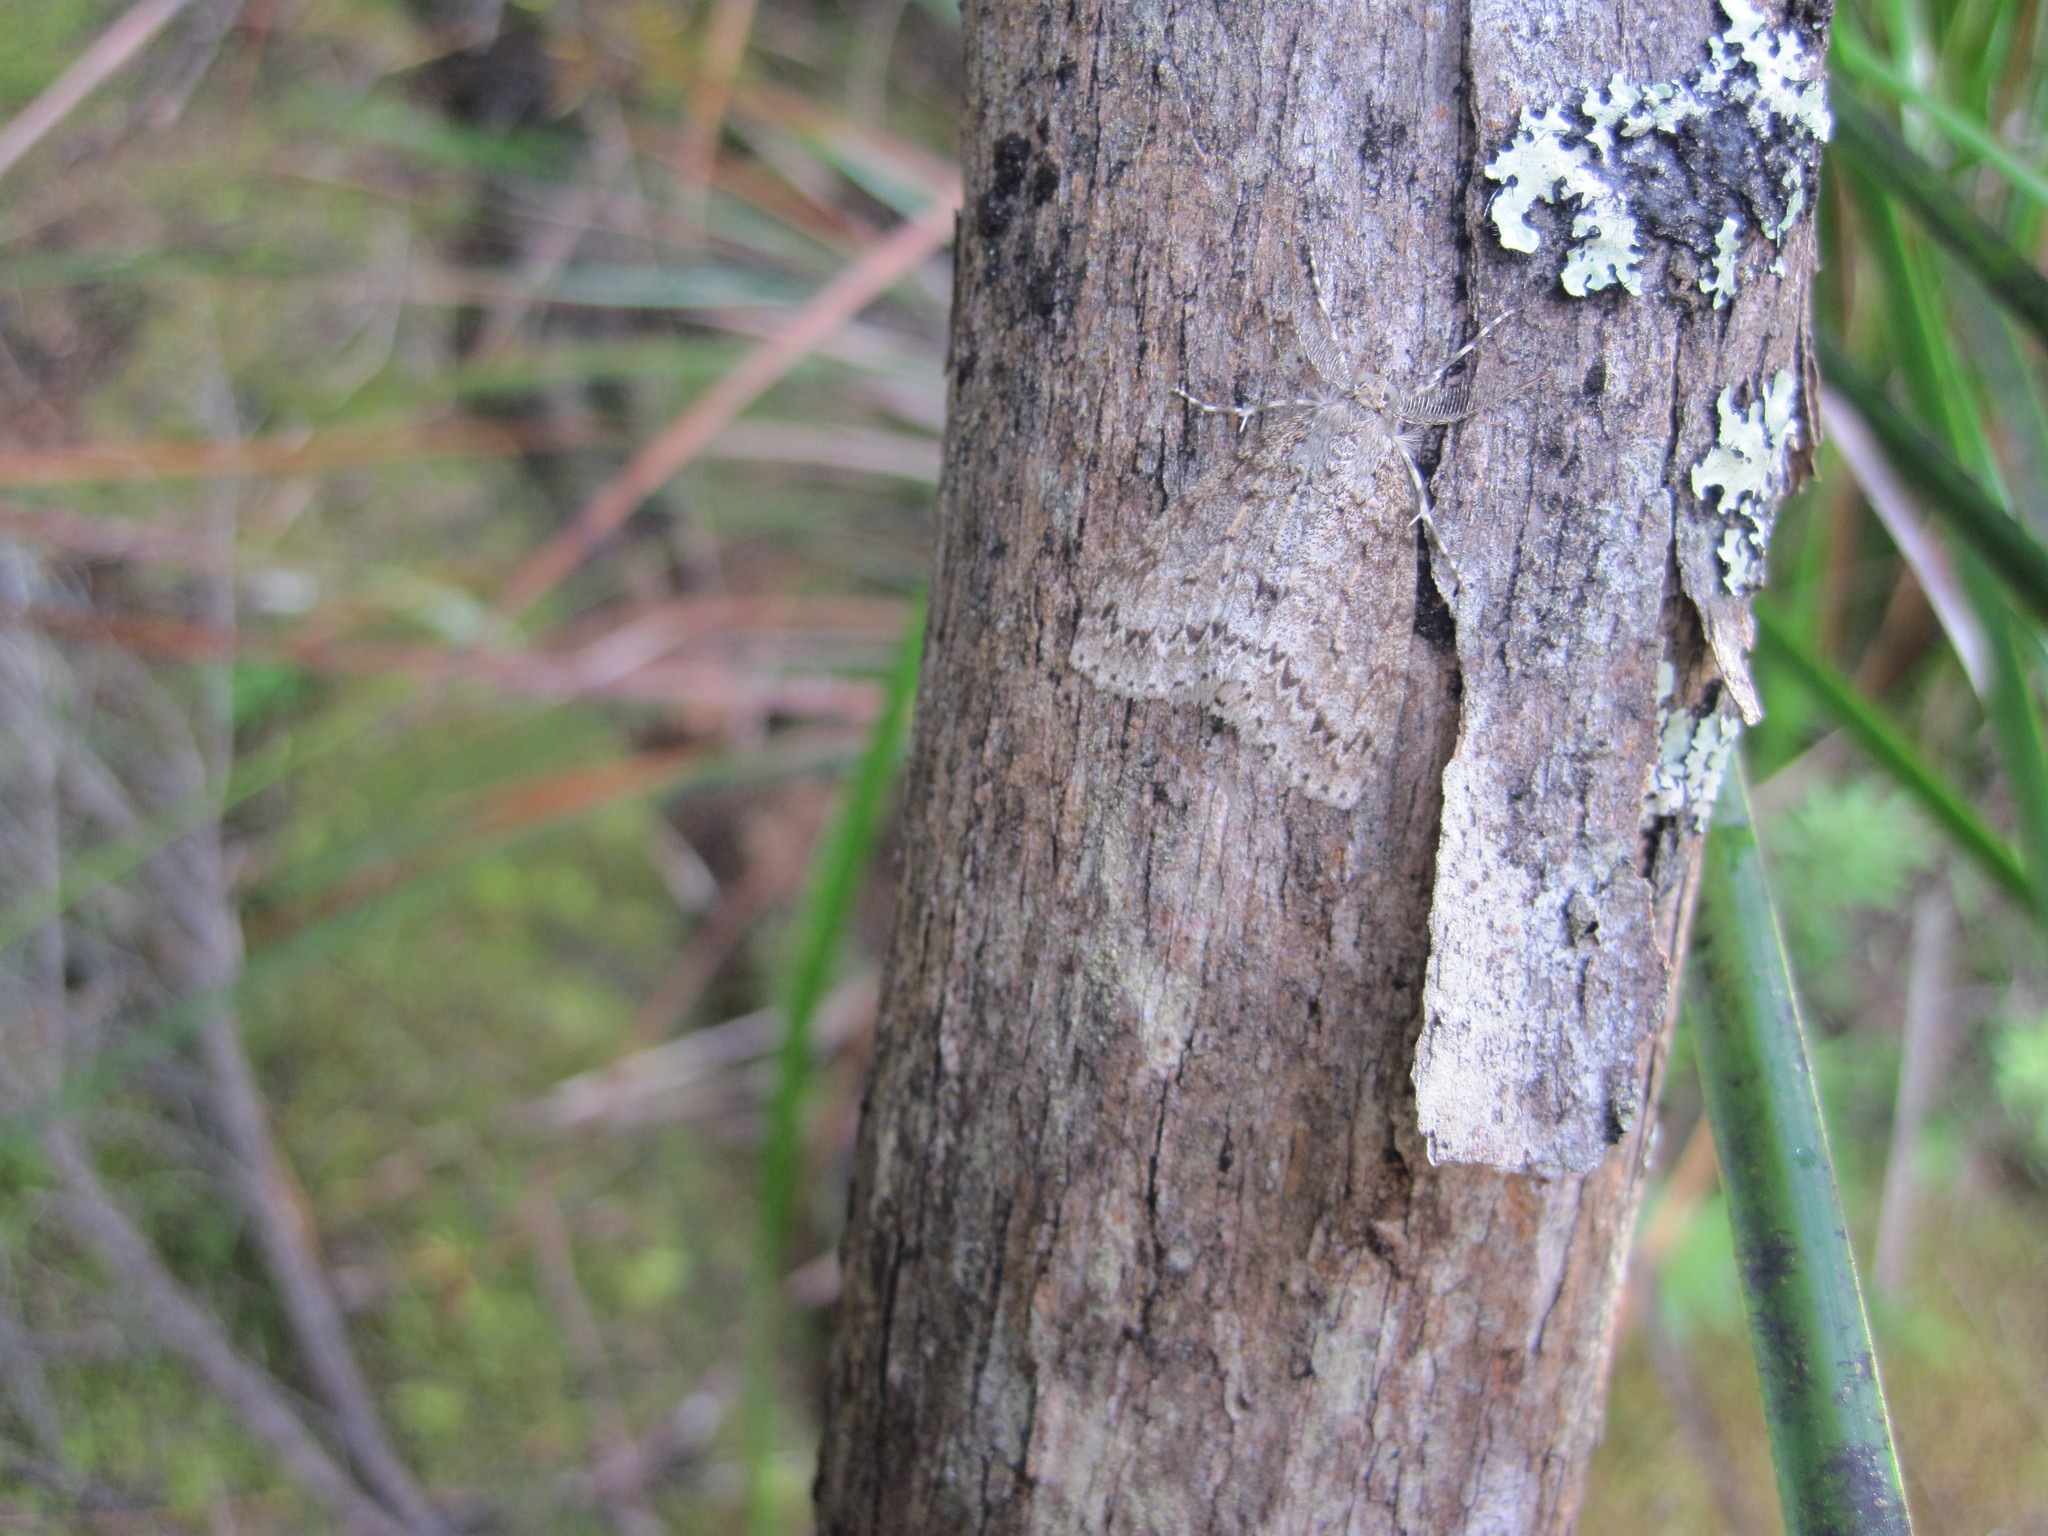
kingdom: Animalia
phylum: Arthropoda
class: Insecta
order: Lepidoptera
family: Geometridae
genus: Pseudocoremia
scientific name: Pseudocoremia fenerata
